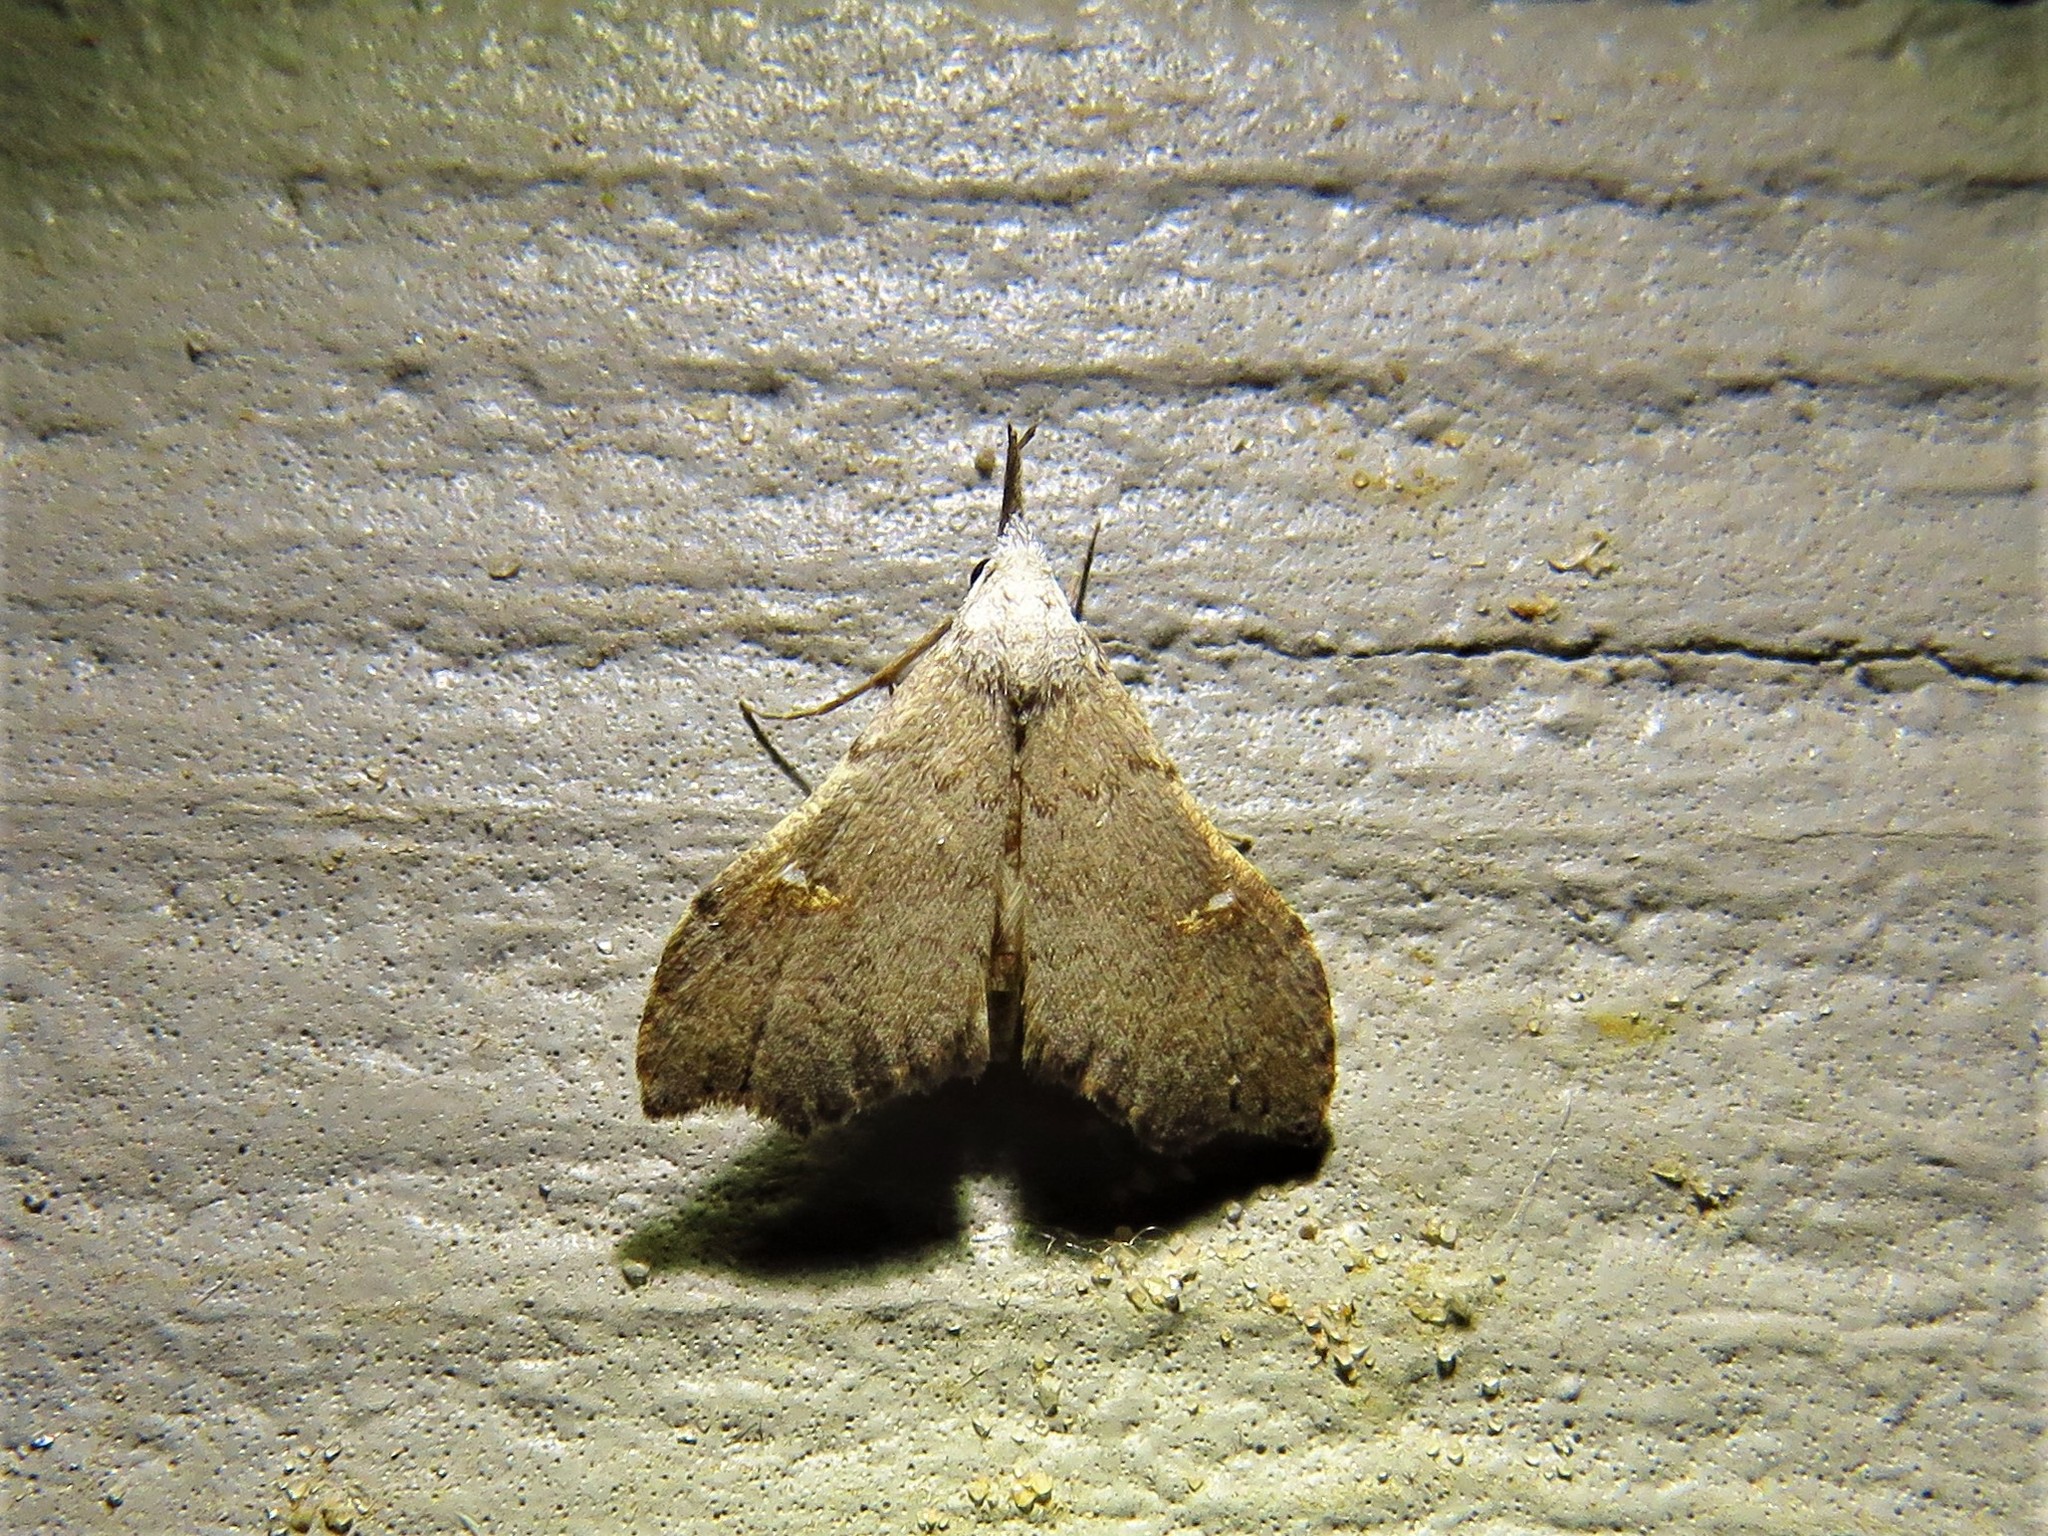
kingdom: Animalia
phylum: Arthropoda
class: Insecta
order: Lepidoptera
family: Erebidae
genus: Redectis
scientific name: Redectis vitrea
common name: White-spotted redectis
